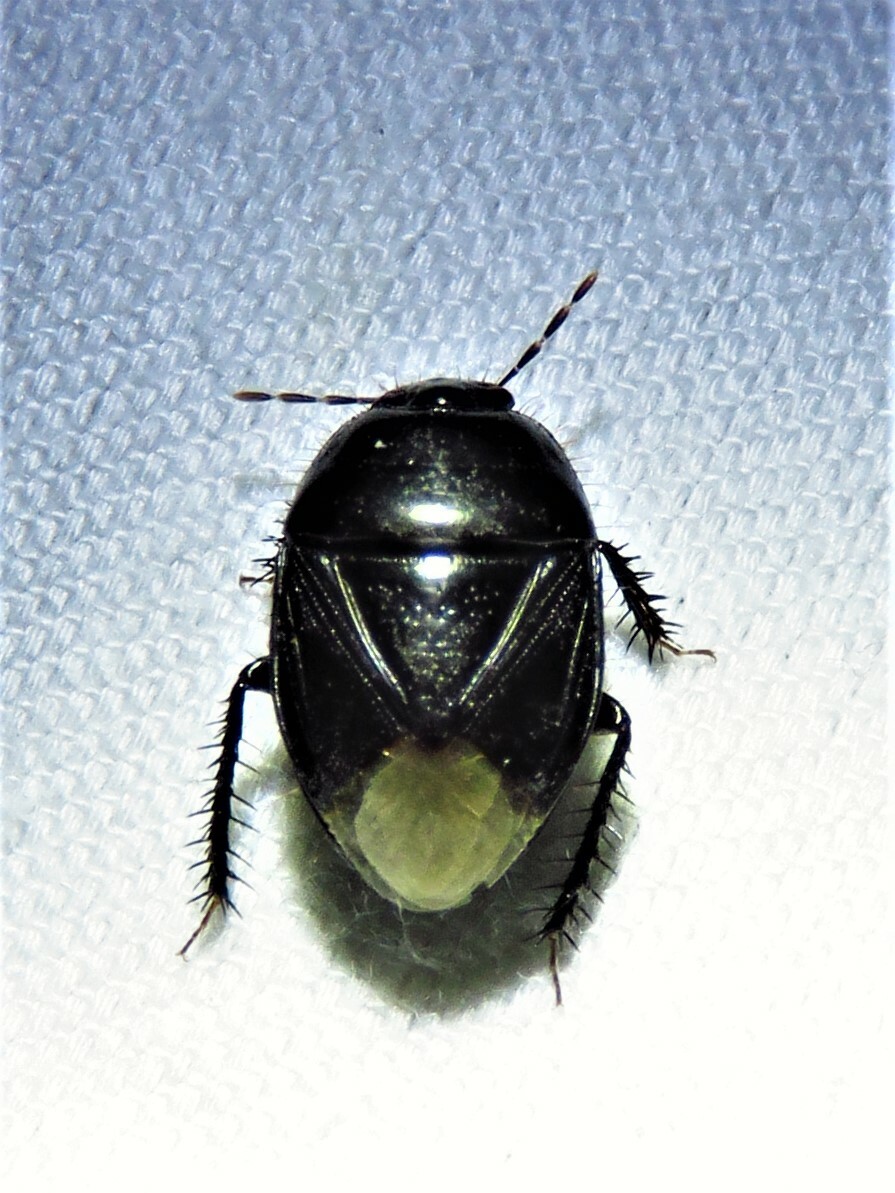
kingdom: Animalia
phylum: Arthropoda
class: Insecta
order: Hemiptera
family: Cydnidae
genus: Pangaeus
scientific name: Pangaeus bilineatus
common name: Burrower bug
